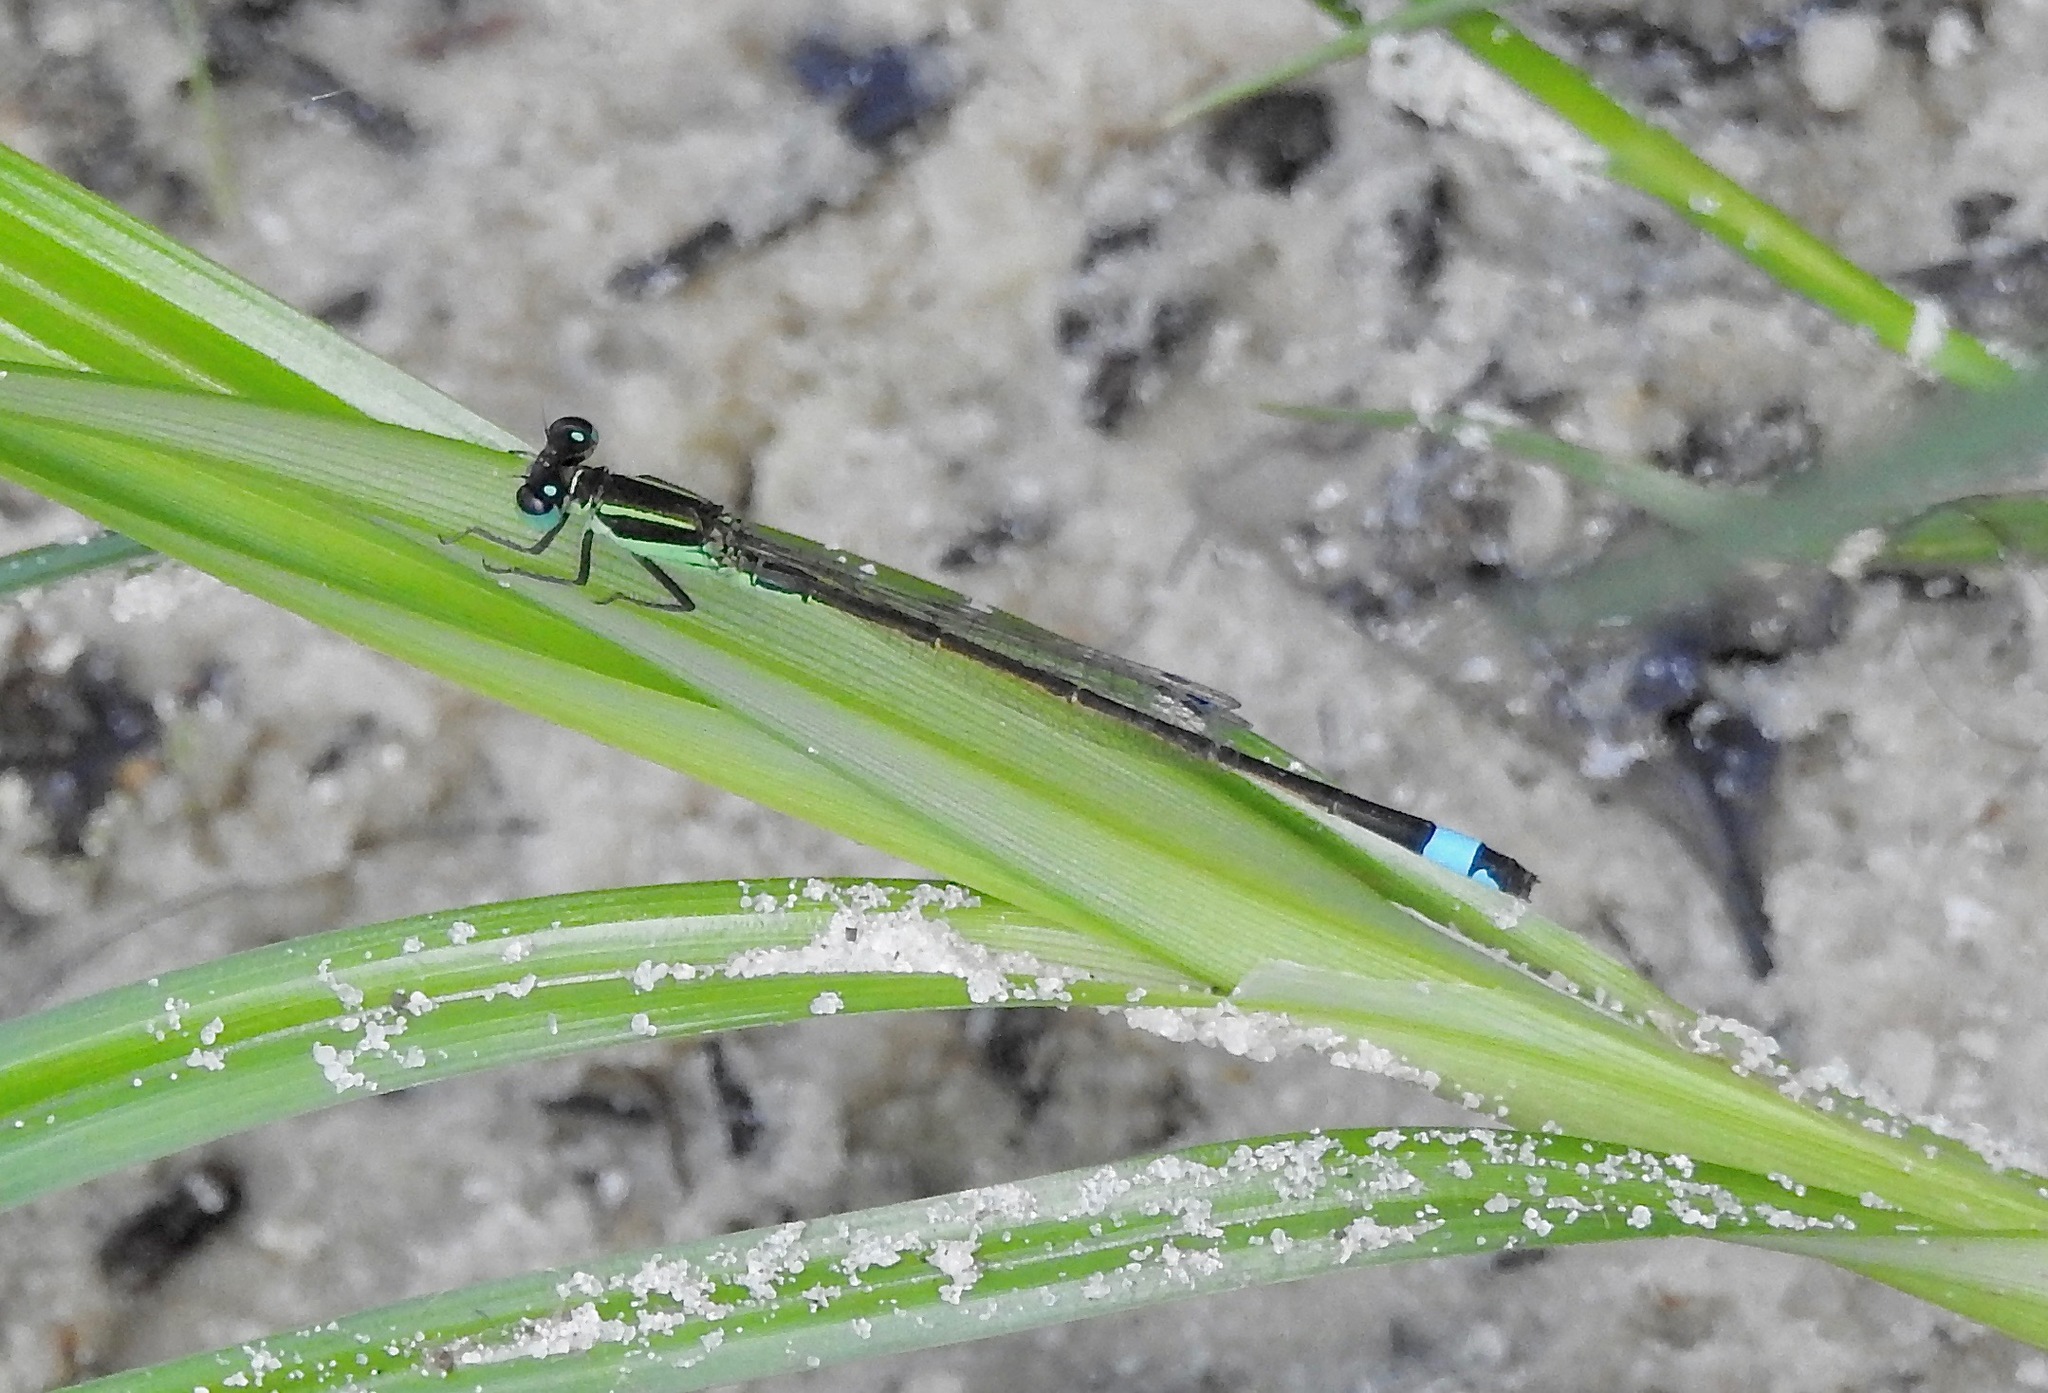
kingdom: Animalia
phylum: Arthropoda
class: Insecta
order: Odonata
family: Coenagrionidae
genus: Ischnura
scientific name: Ischnura ramburii
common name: Rambur's forktail
